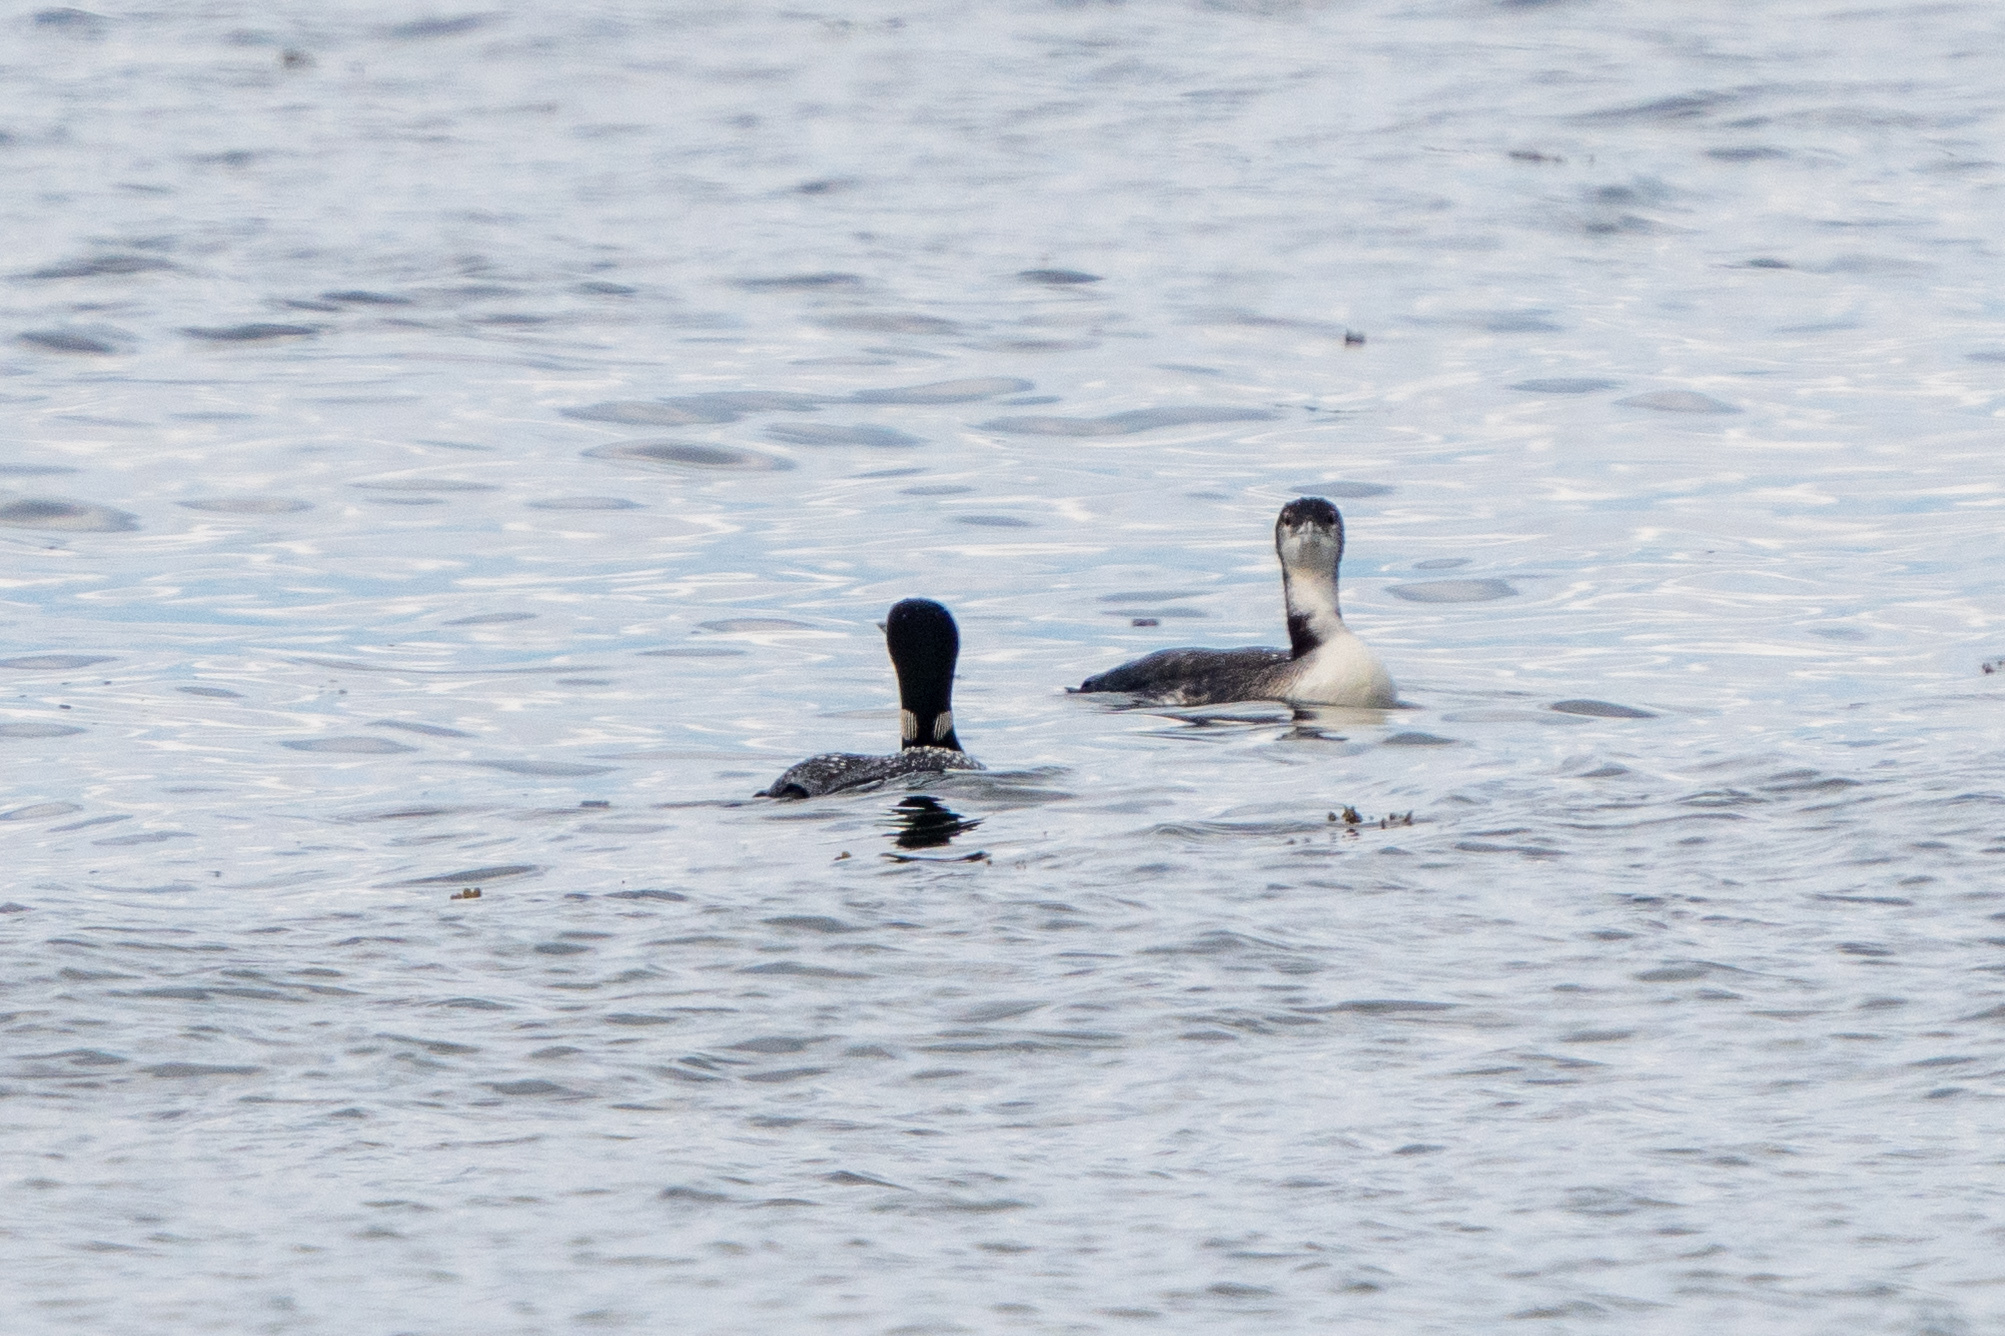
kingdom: Animalia
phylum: Chordata
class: Aves
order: Gaviiformes
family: Gaviidae
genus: Gavia
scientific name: Gavia immer
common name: Common loon
